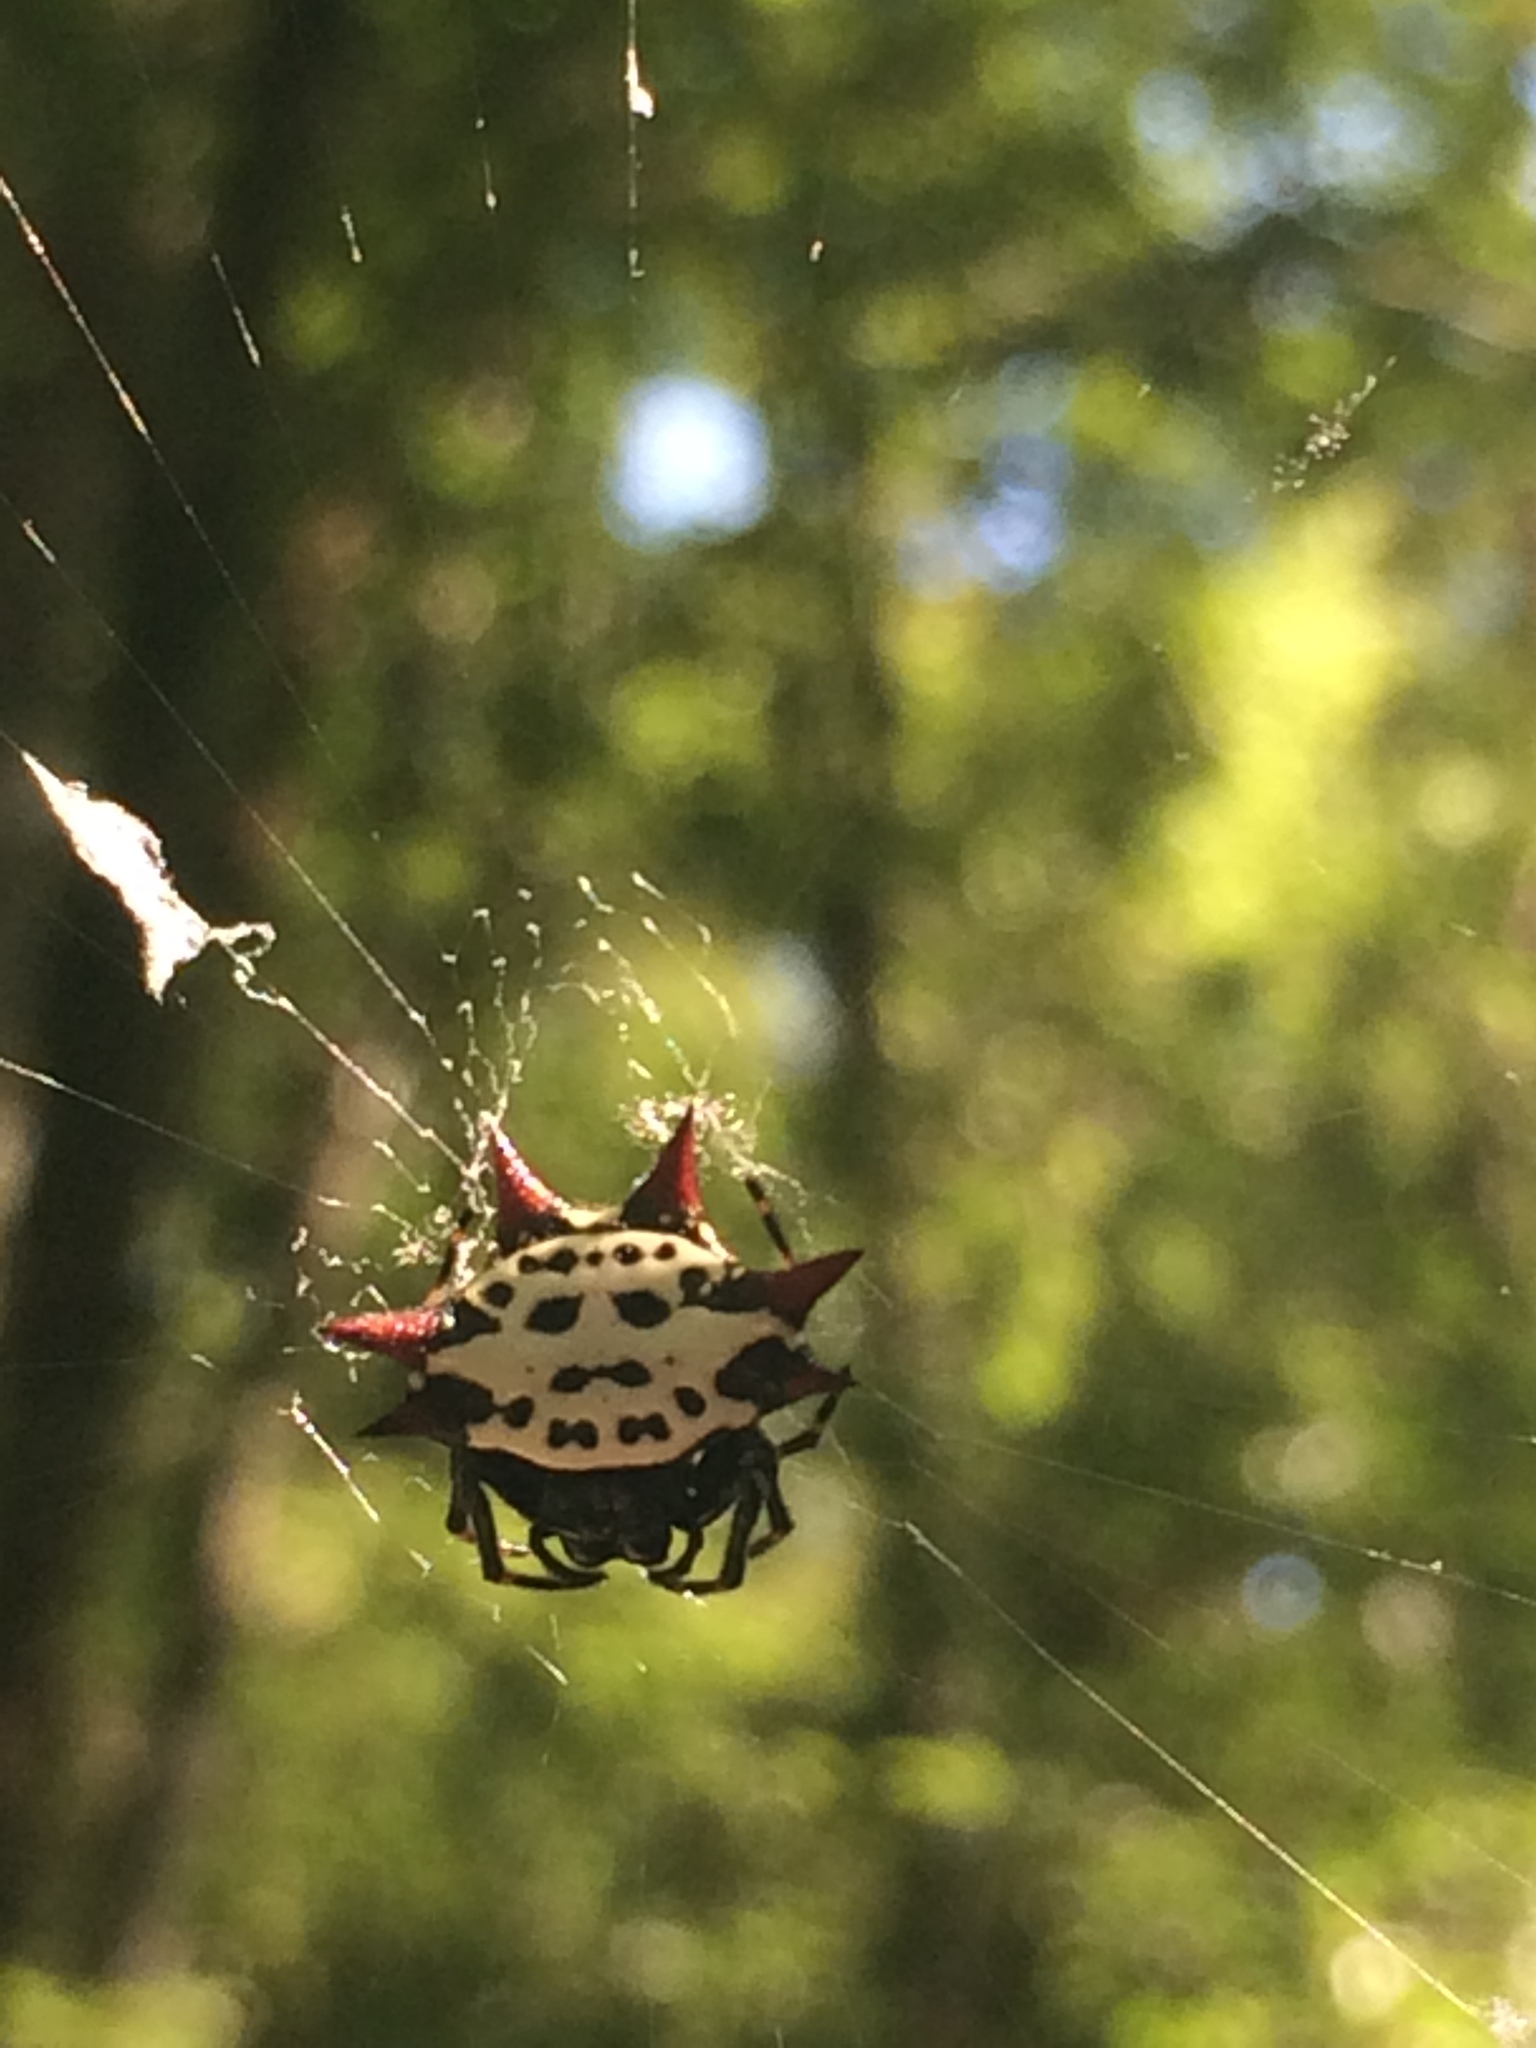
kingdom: Animalia
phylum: Arthropoda
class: Arachnida
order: Araneae
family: Araneidae
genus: Gasteracantha
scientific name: Gasteracantha cancriformis
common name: Orb weavers
